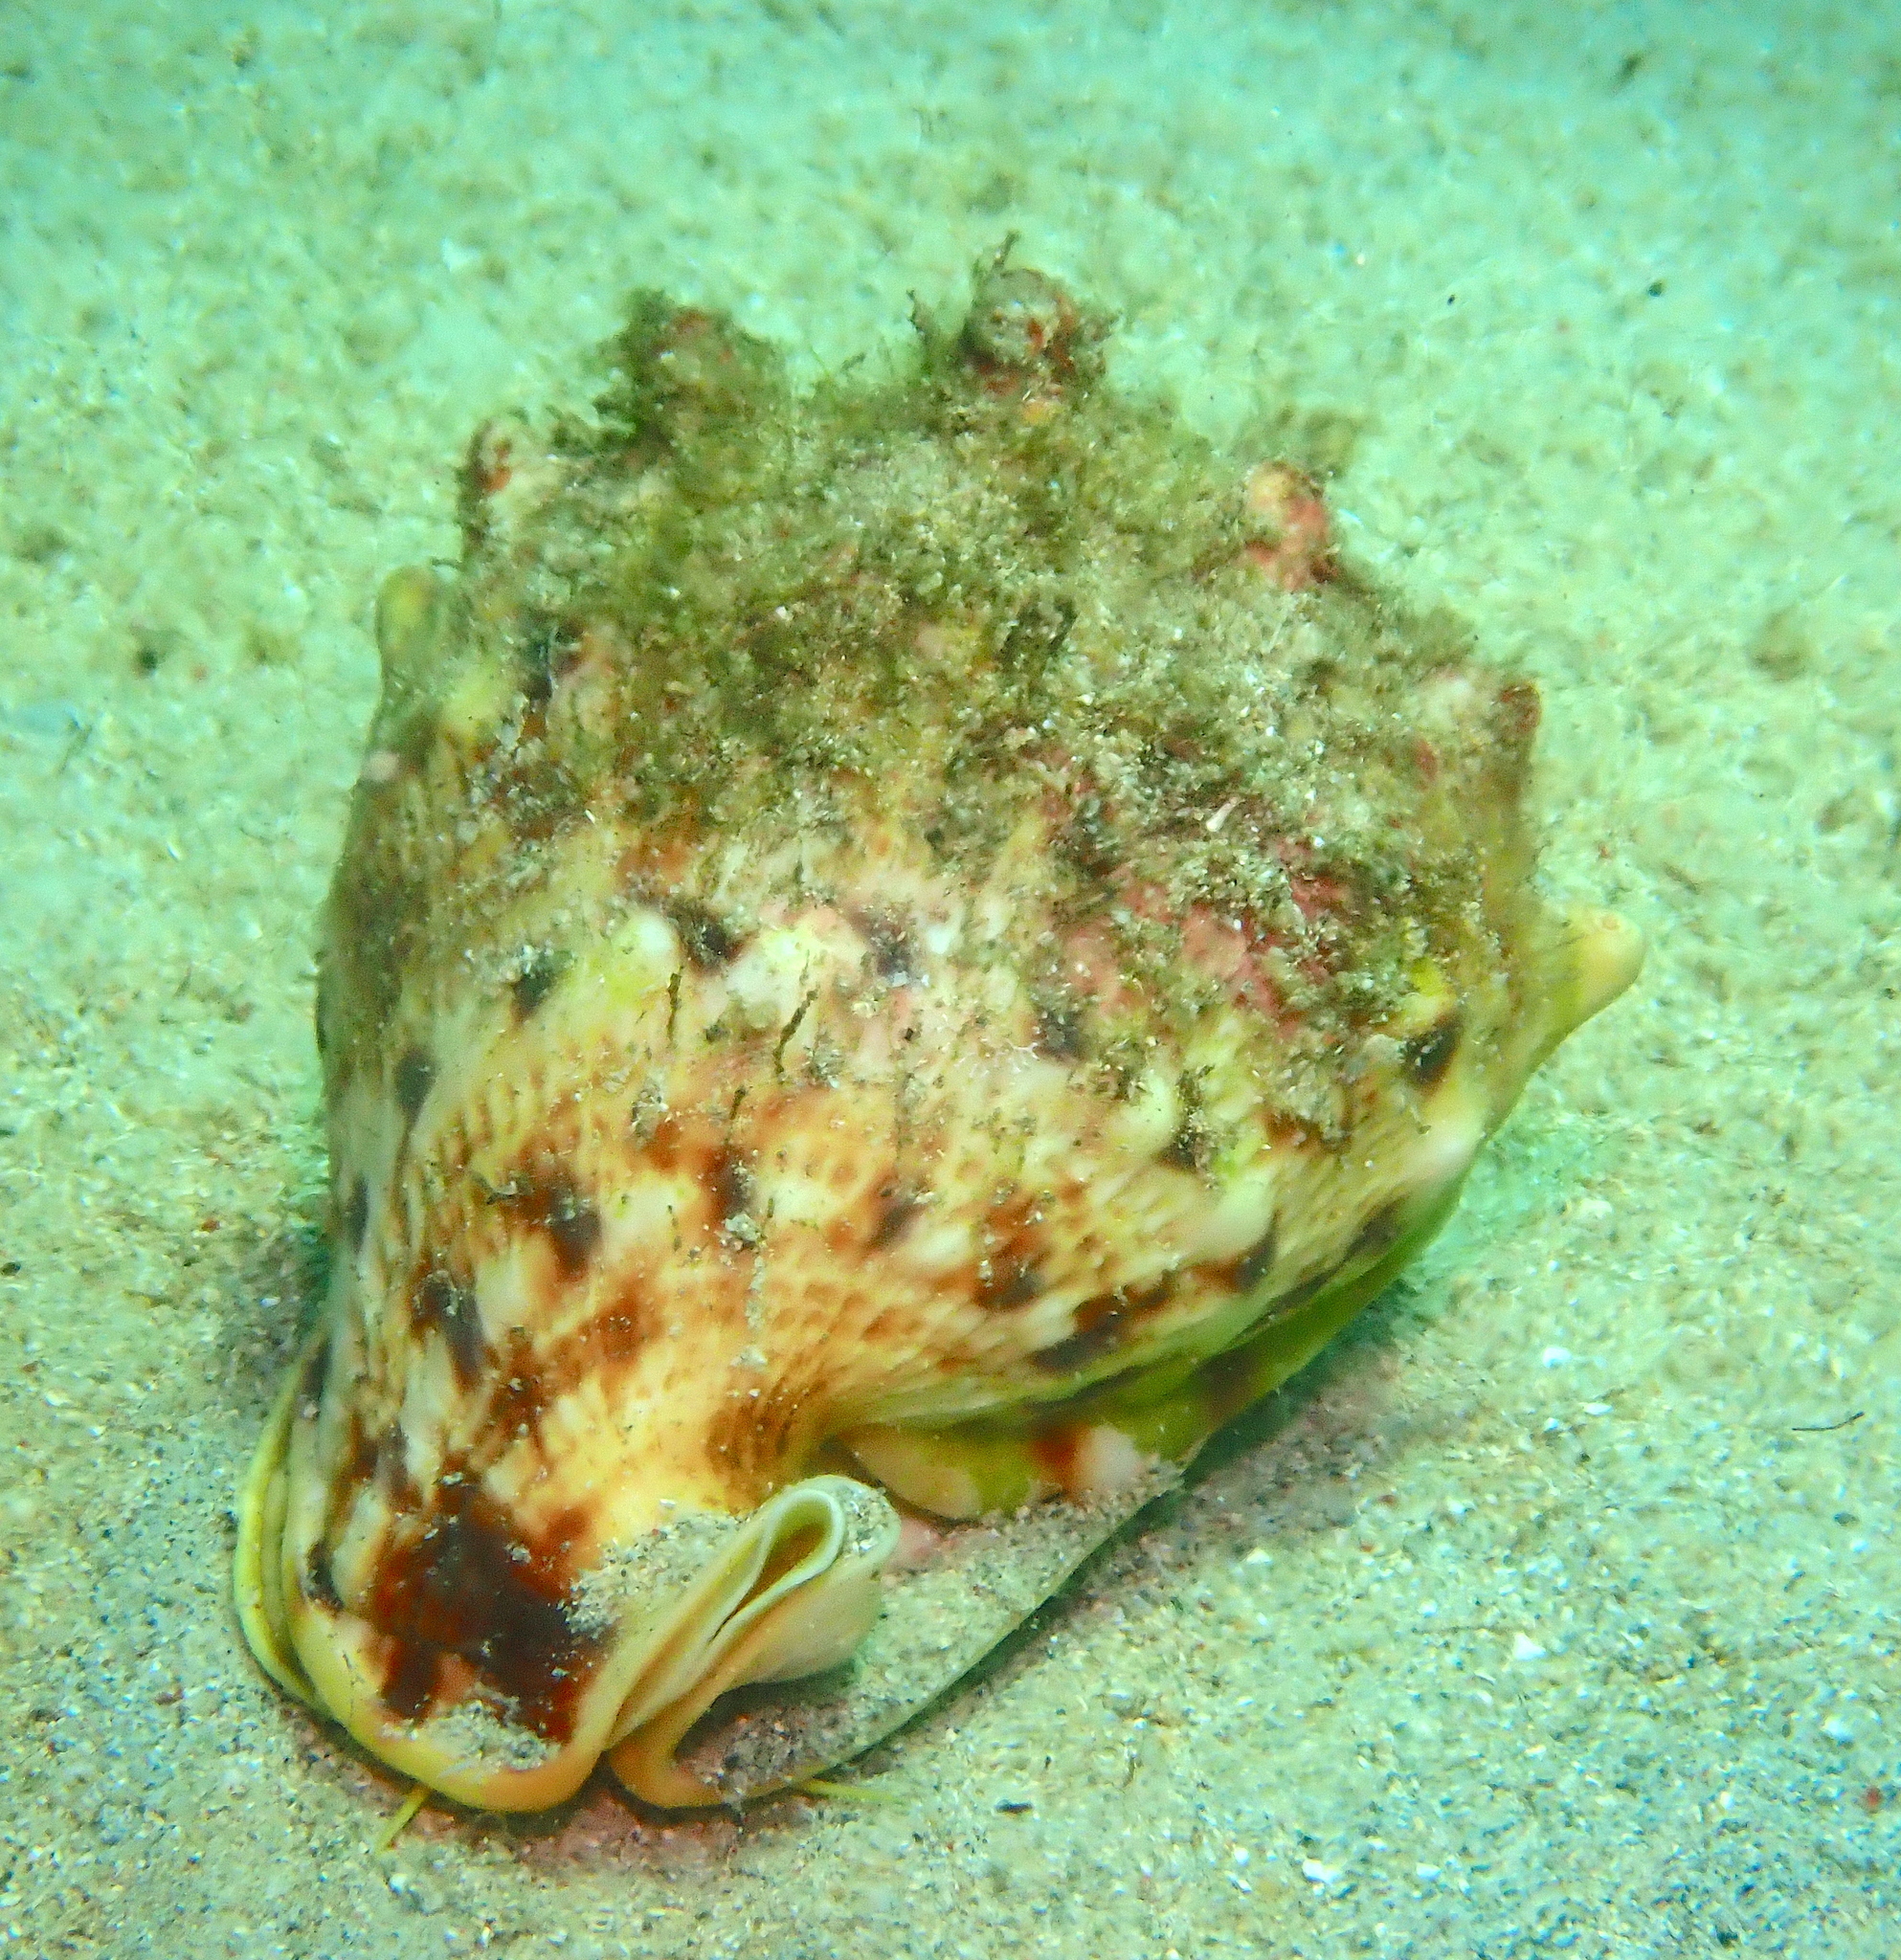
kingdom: Animalia
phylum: Mollusca
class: Gastropoda
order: Littorinimorpha
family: Cassidae
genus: Cassis
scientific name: Cassis cornuta
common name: Giant helmet
